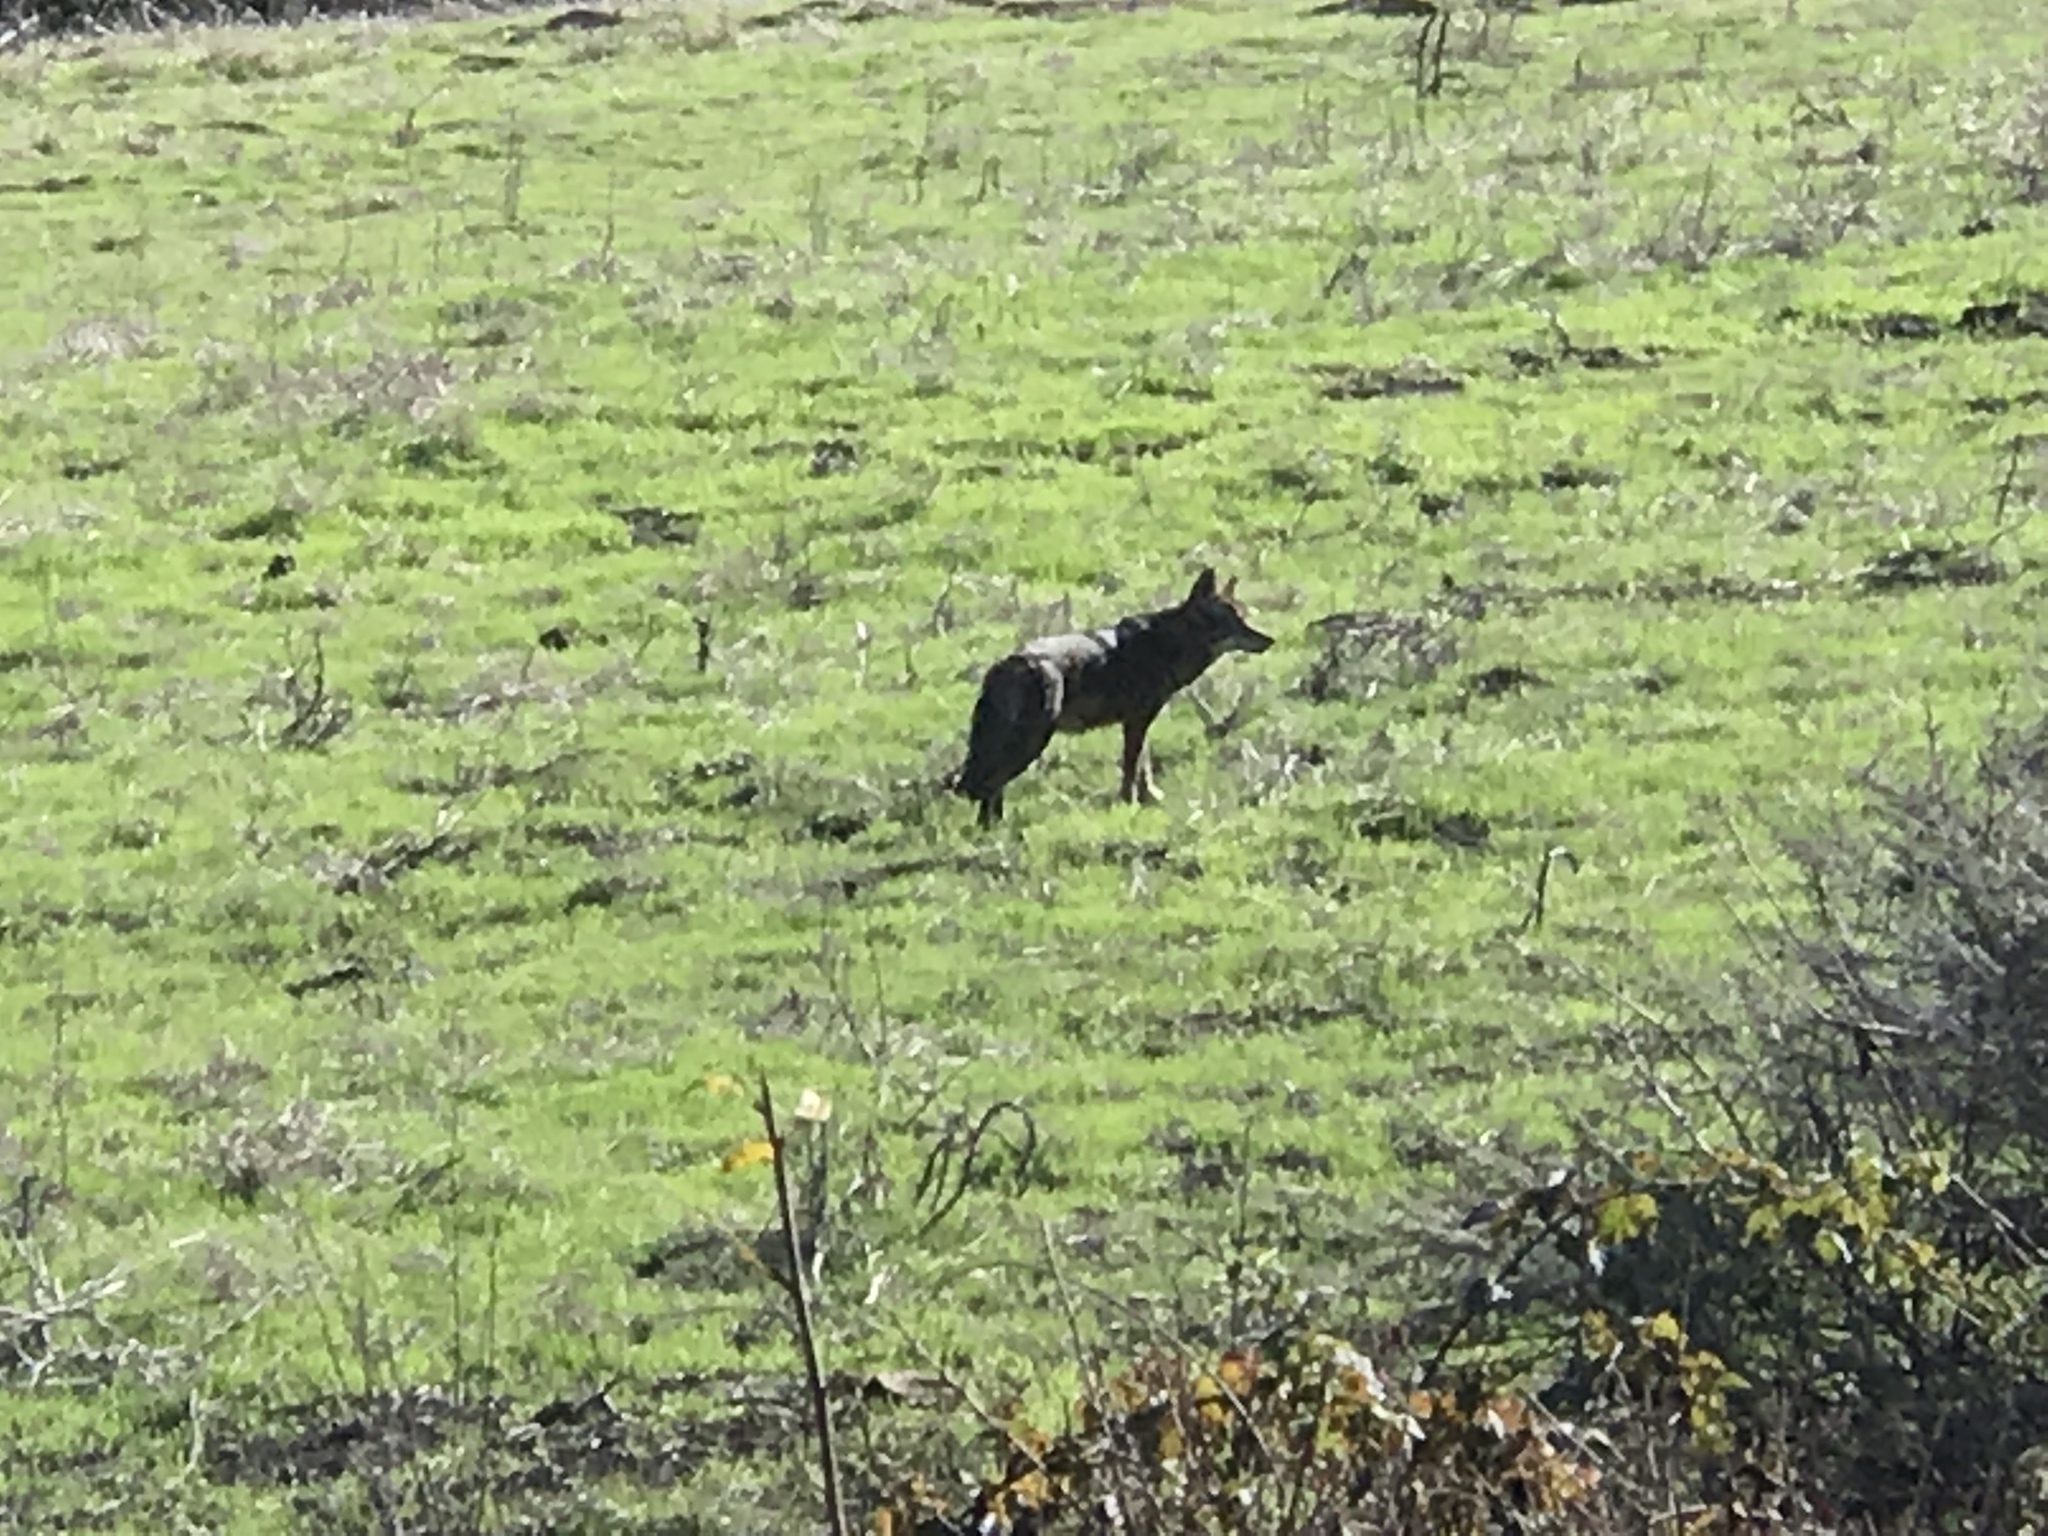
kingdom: Animalia
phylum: Chordata
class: Mammalia
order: Carnivora
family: Canidae
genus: Canis
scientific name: Canis latrans
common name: Coyote
